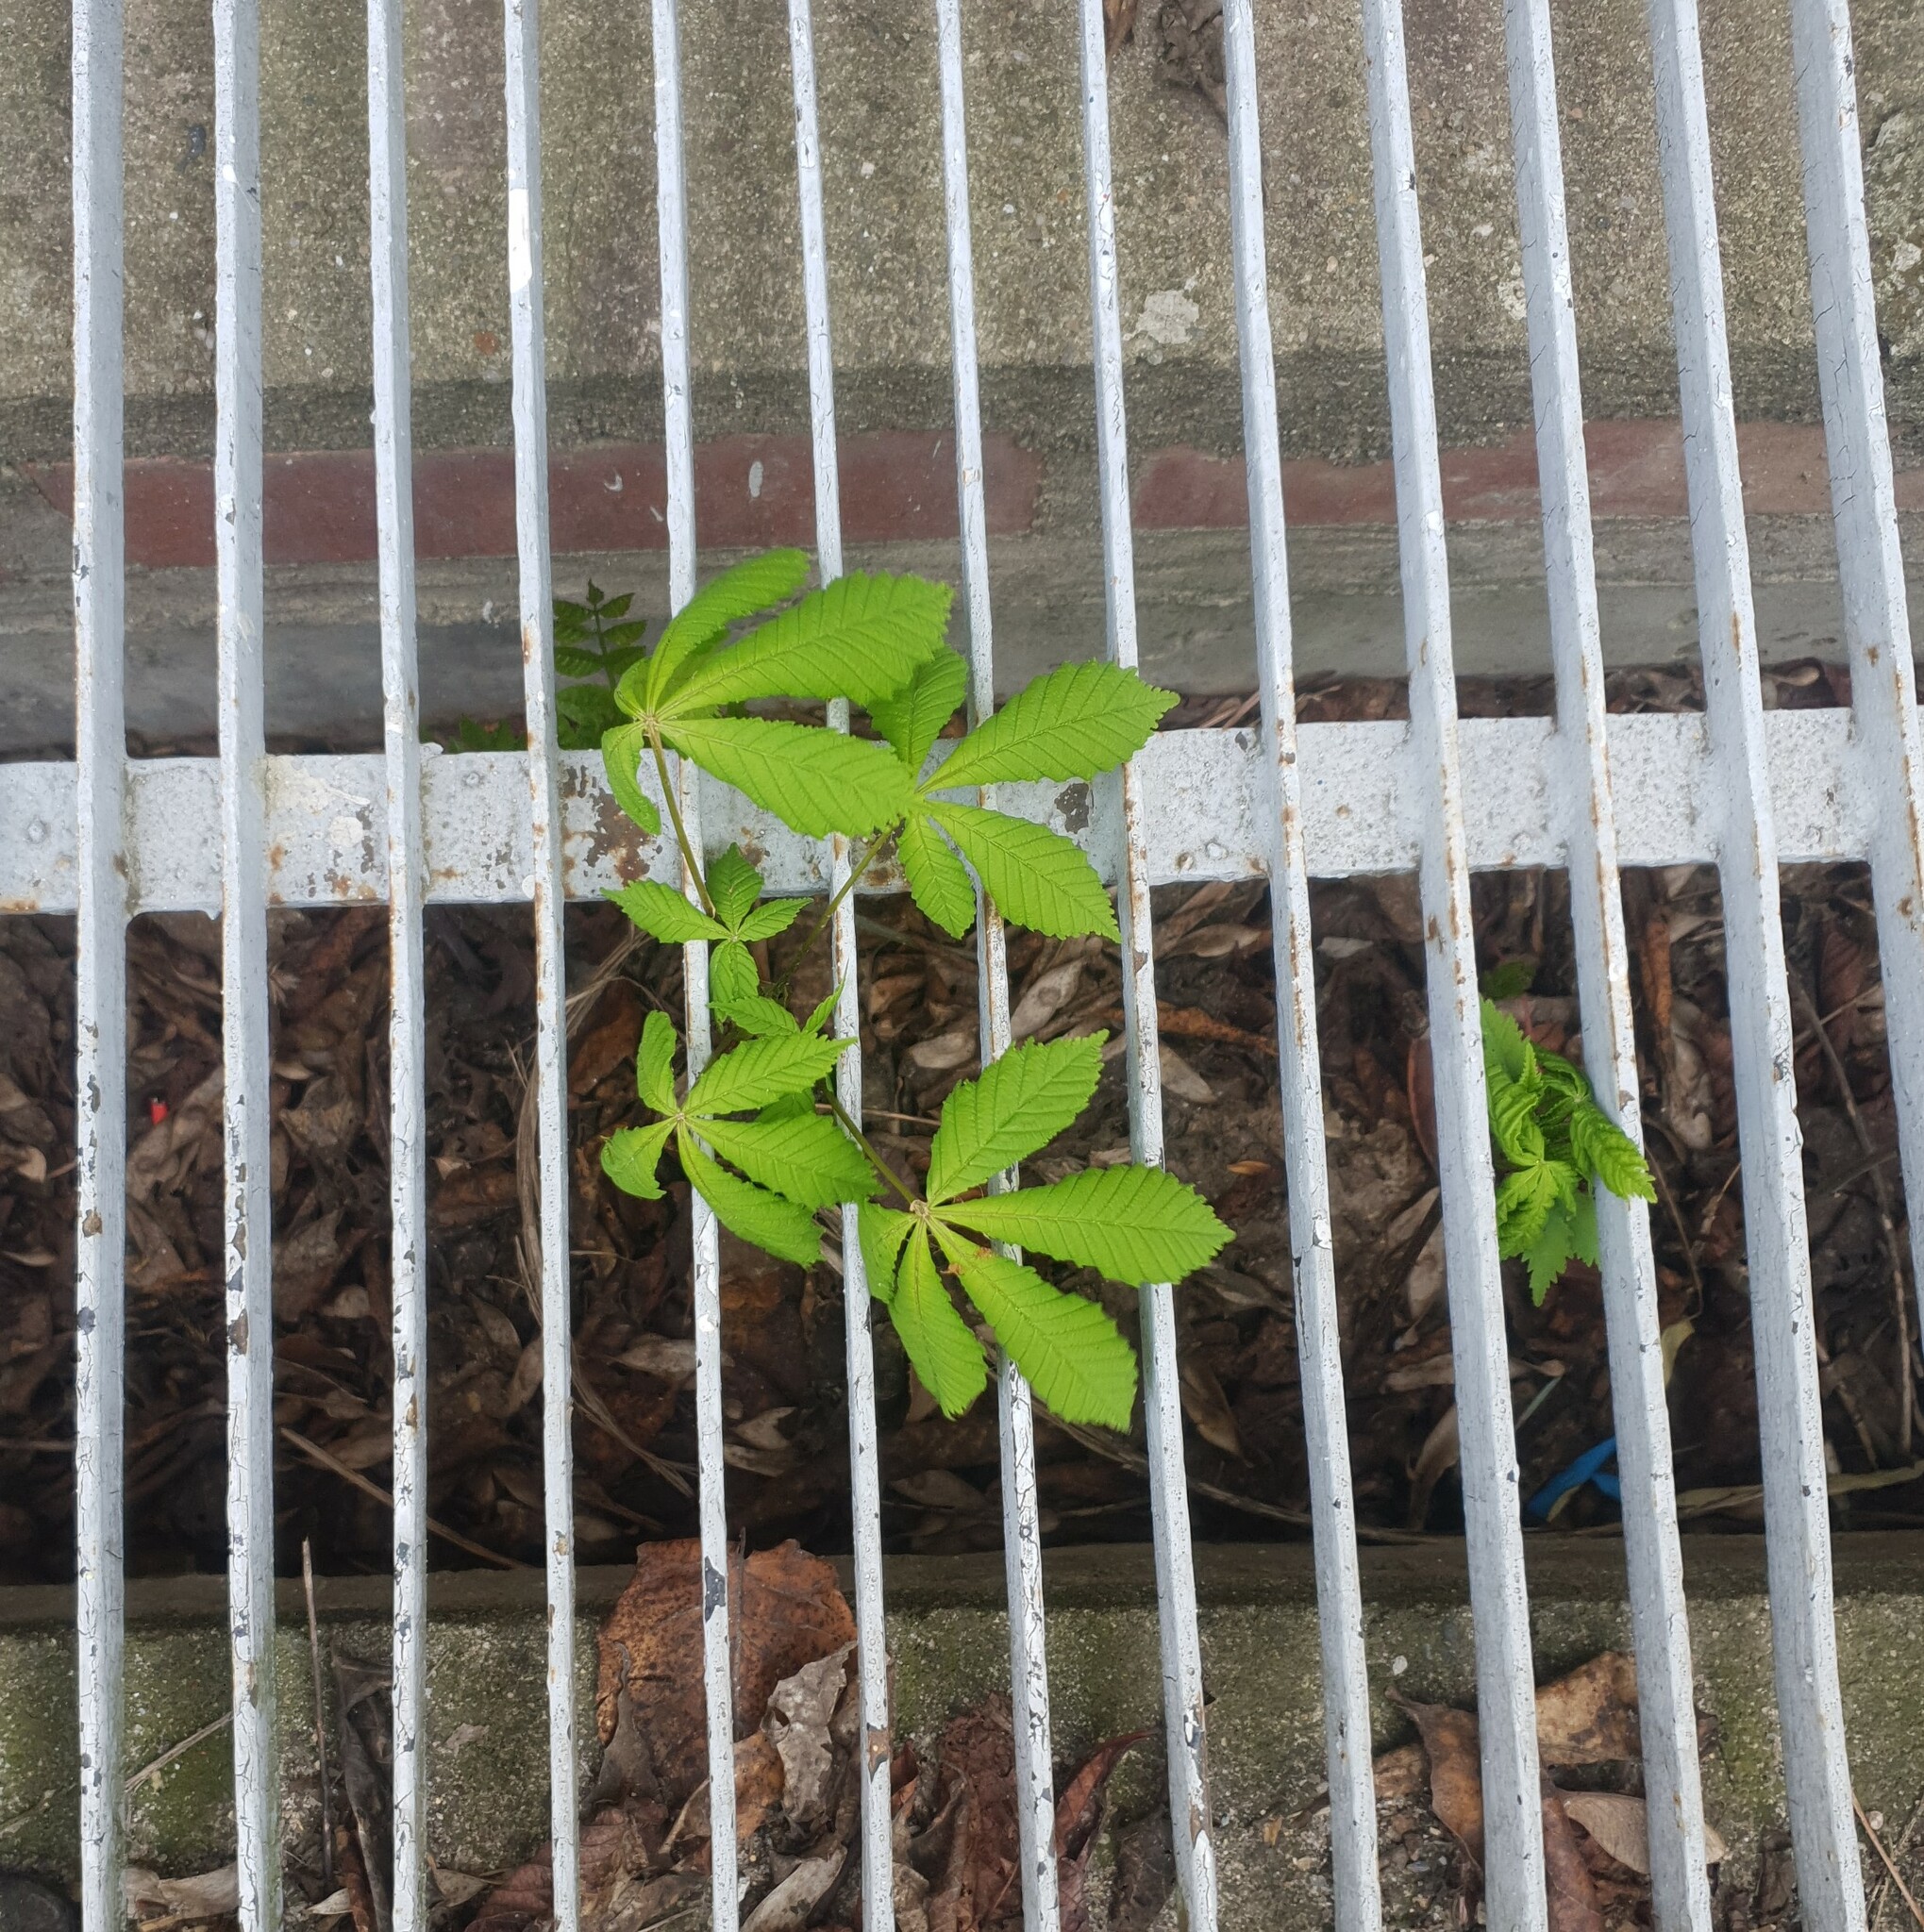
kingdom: Plantae
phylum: Tracheophyta
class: Magnoliopsida
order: Sapindales
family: Sapindaceae
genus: Aesculus
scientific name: Aesculus hippocastanum
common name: Horse-chestnut
